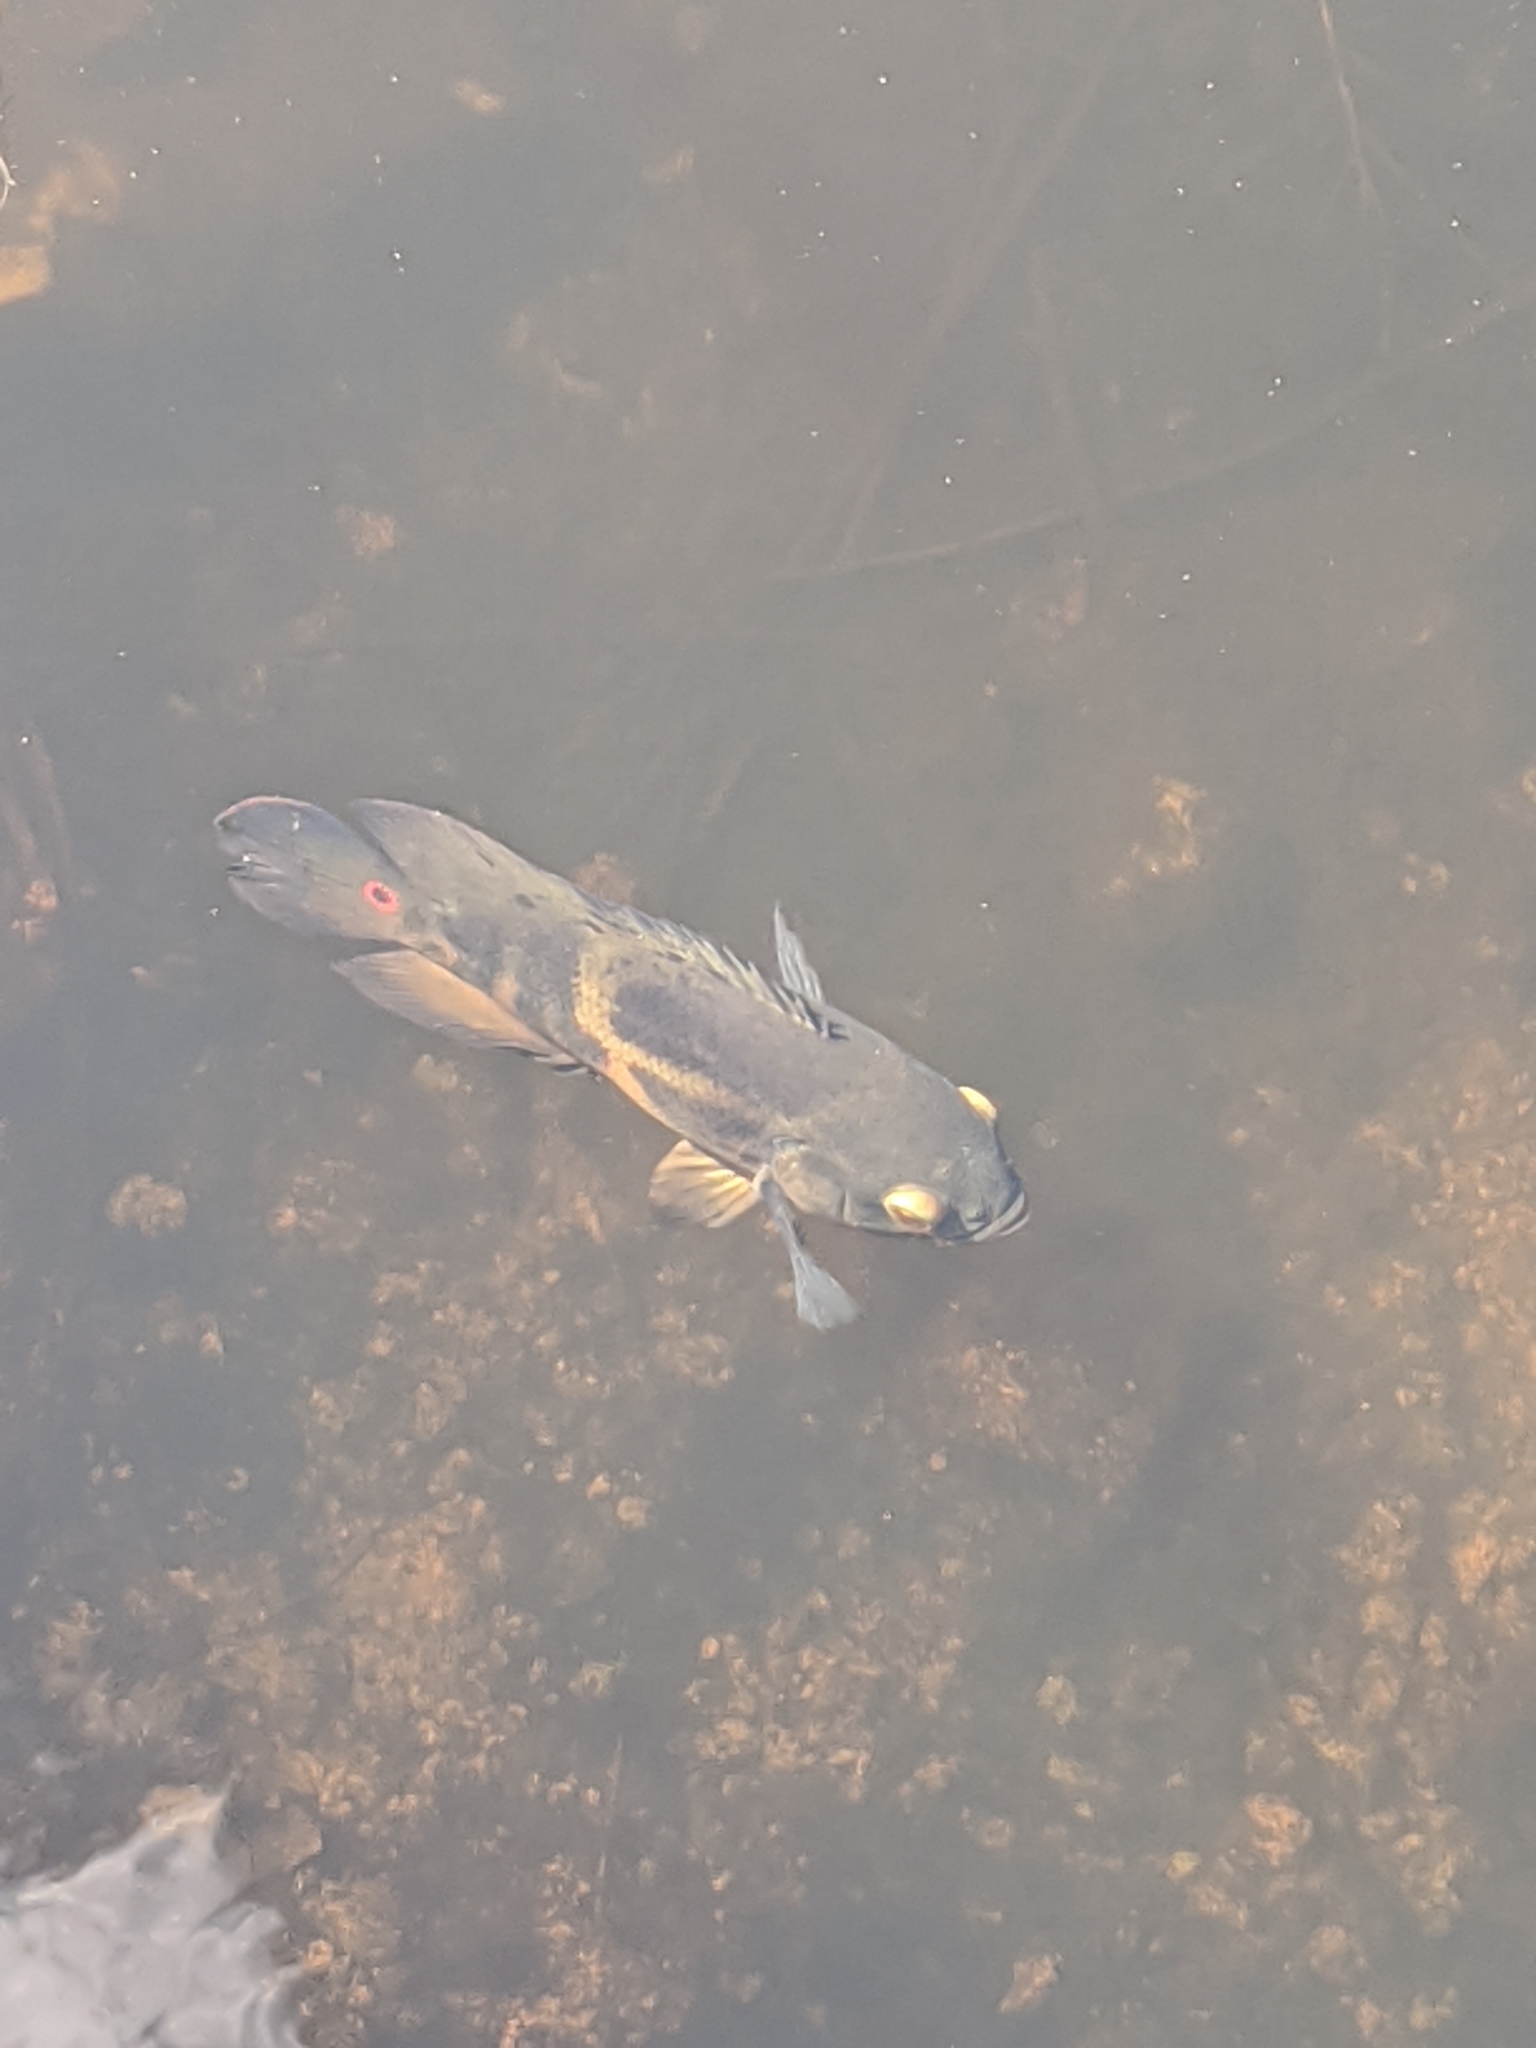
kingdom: Animalia
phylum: Chordata
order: Perciformes
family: Cichlidae
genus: Astronotus
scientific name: Astronotus ocellatus
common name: Oscar
